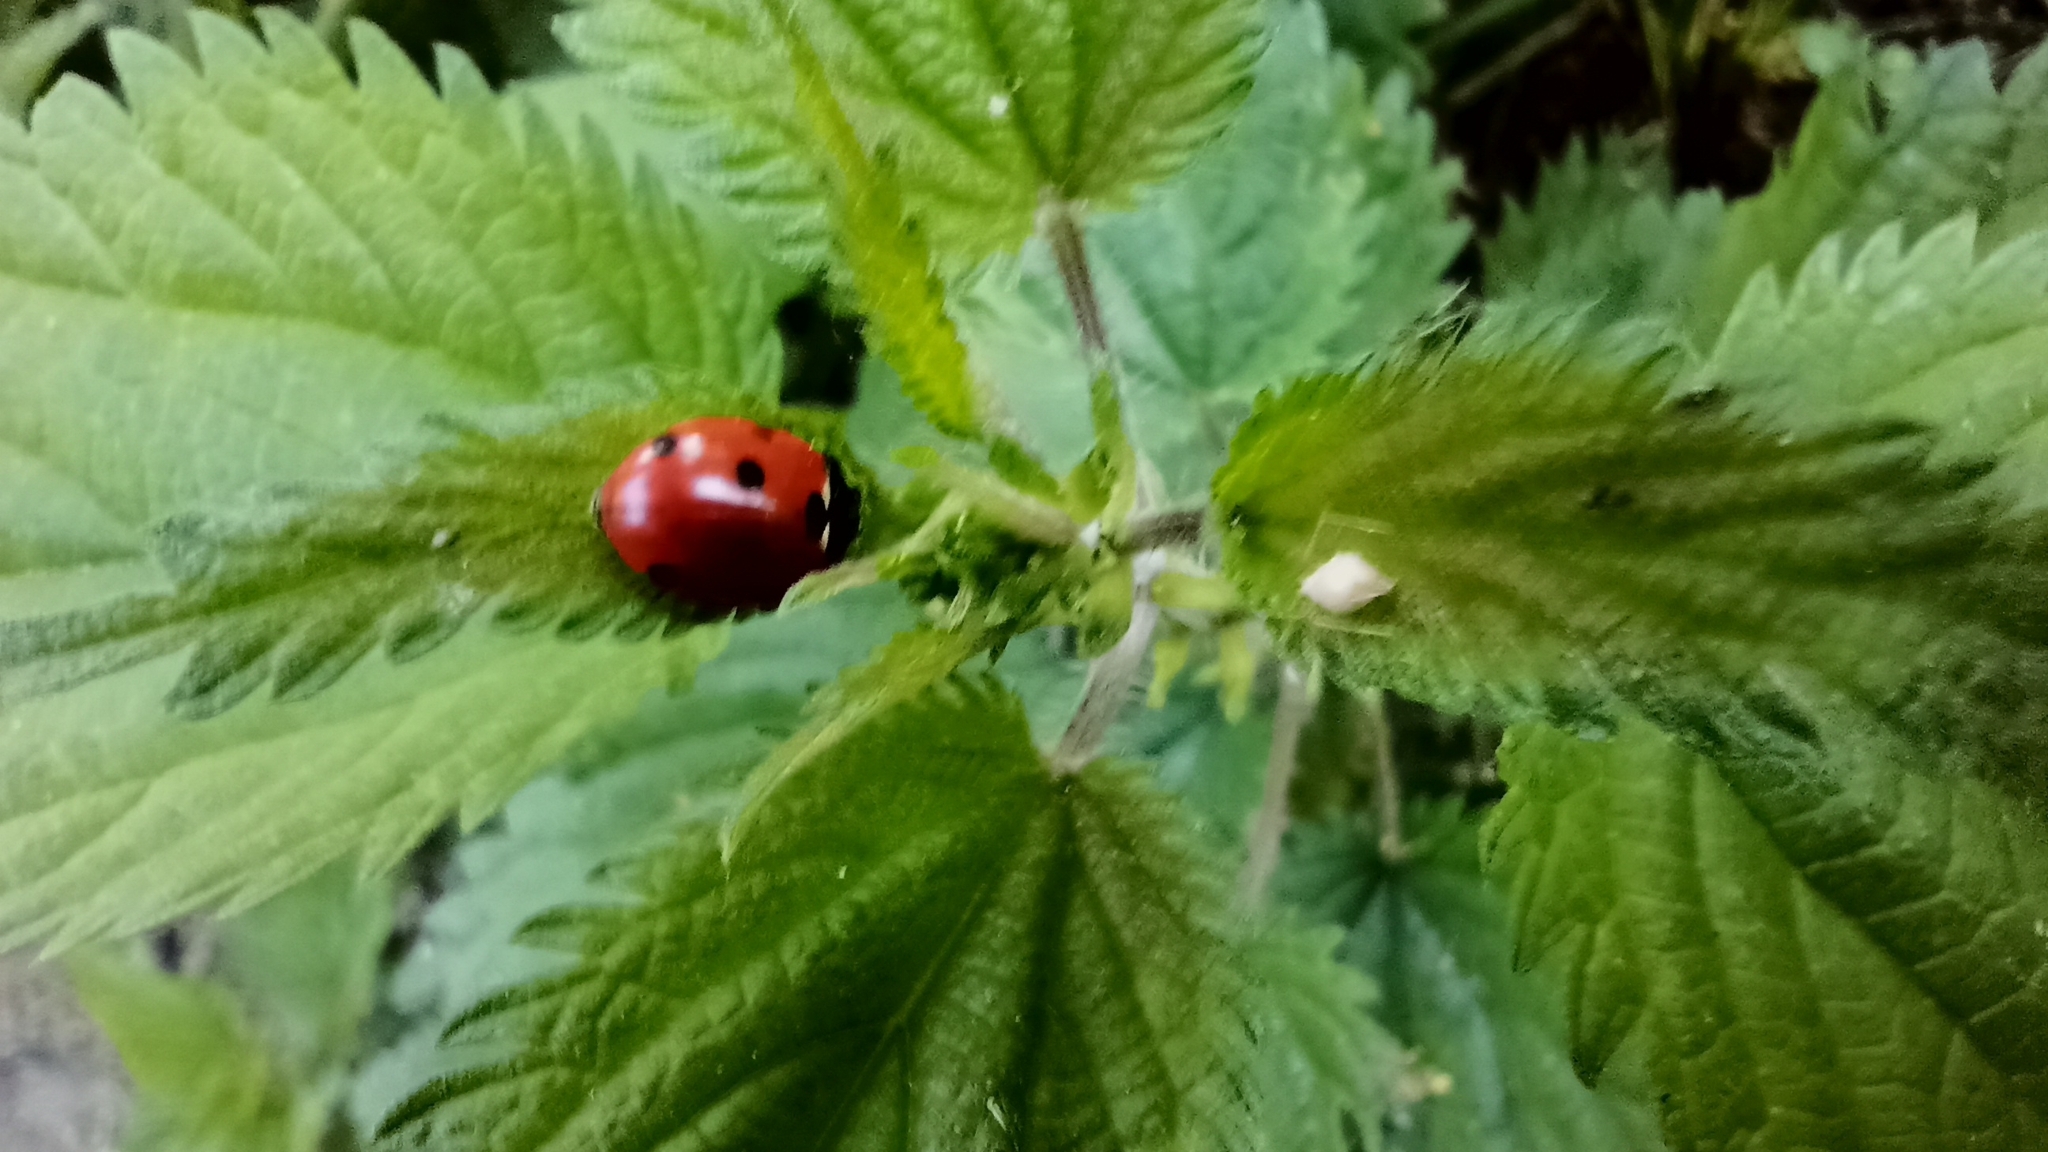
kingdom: Animalia
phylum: Arthropoda
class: Insecta
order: Coleoptera
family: Coccinellidae
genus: Coccinella
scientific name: Coccinella septempunctata
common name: Sevenspotted lady beetle
